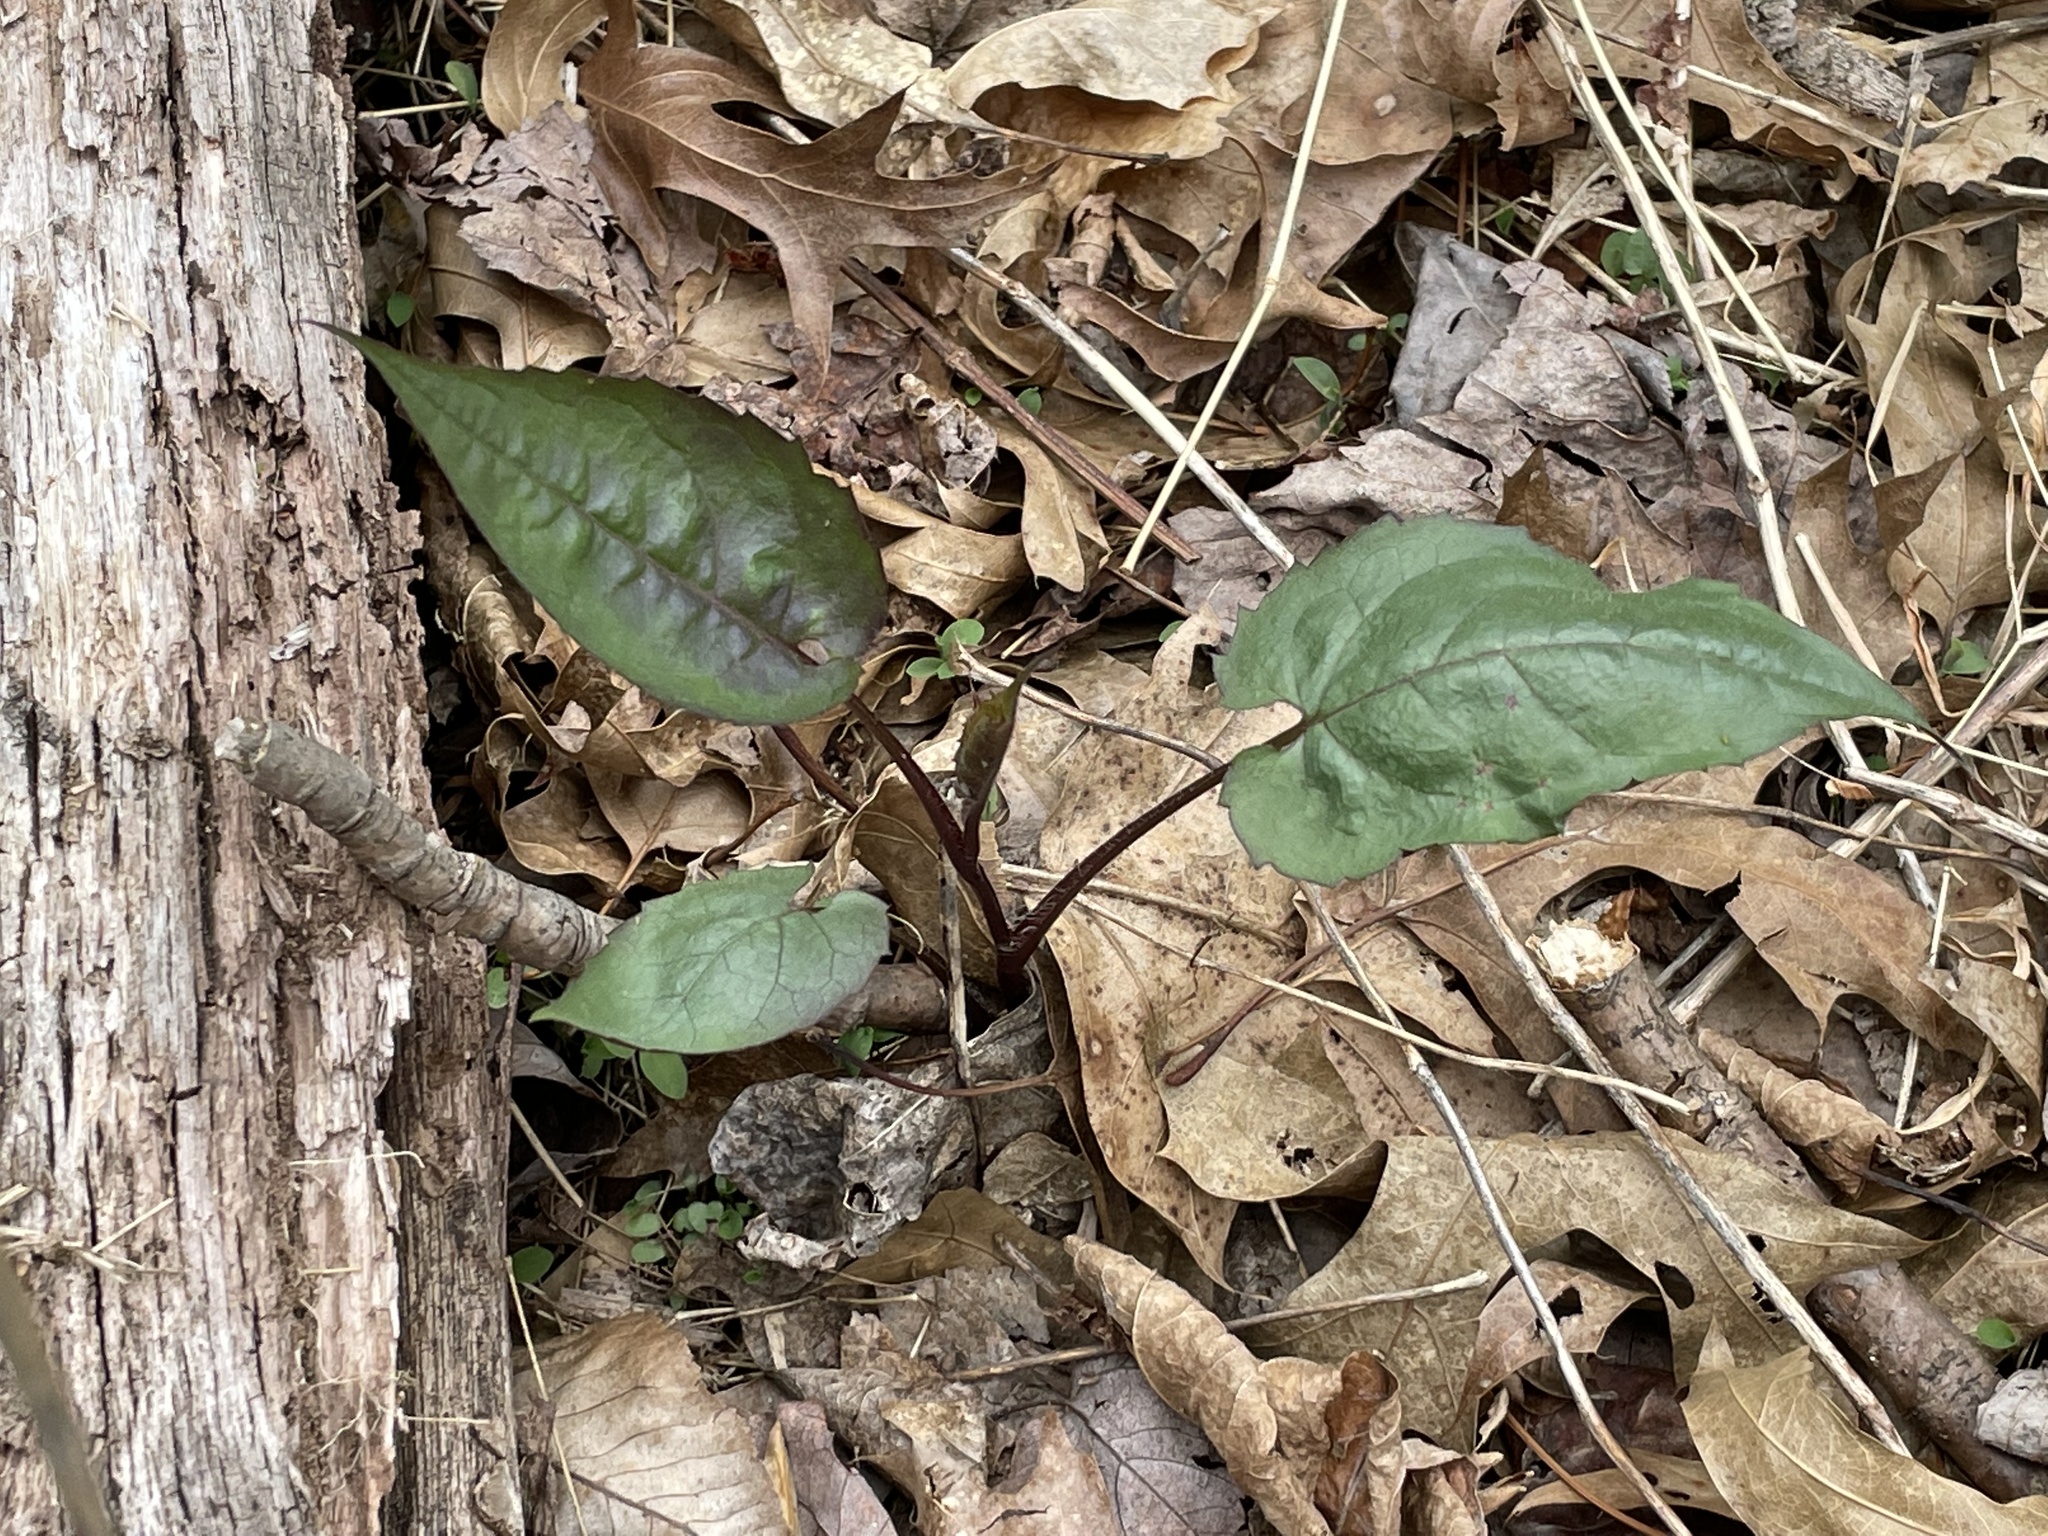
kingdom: Plantae
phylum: Tracheophyta
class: Magnoliopsida
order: Asterales
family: Asteraceae
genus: Eurybia
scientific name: Eurybia divaricata
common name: White wood aster
